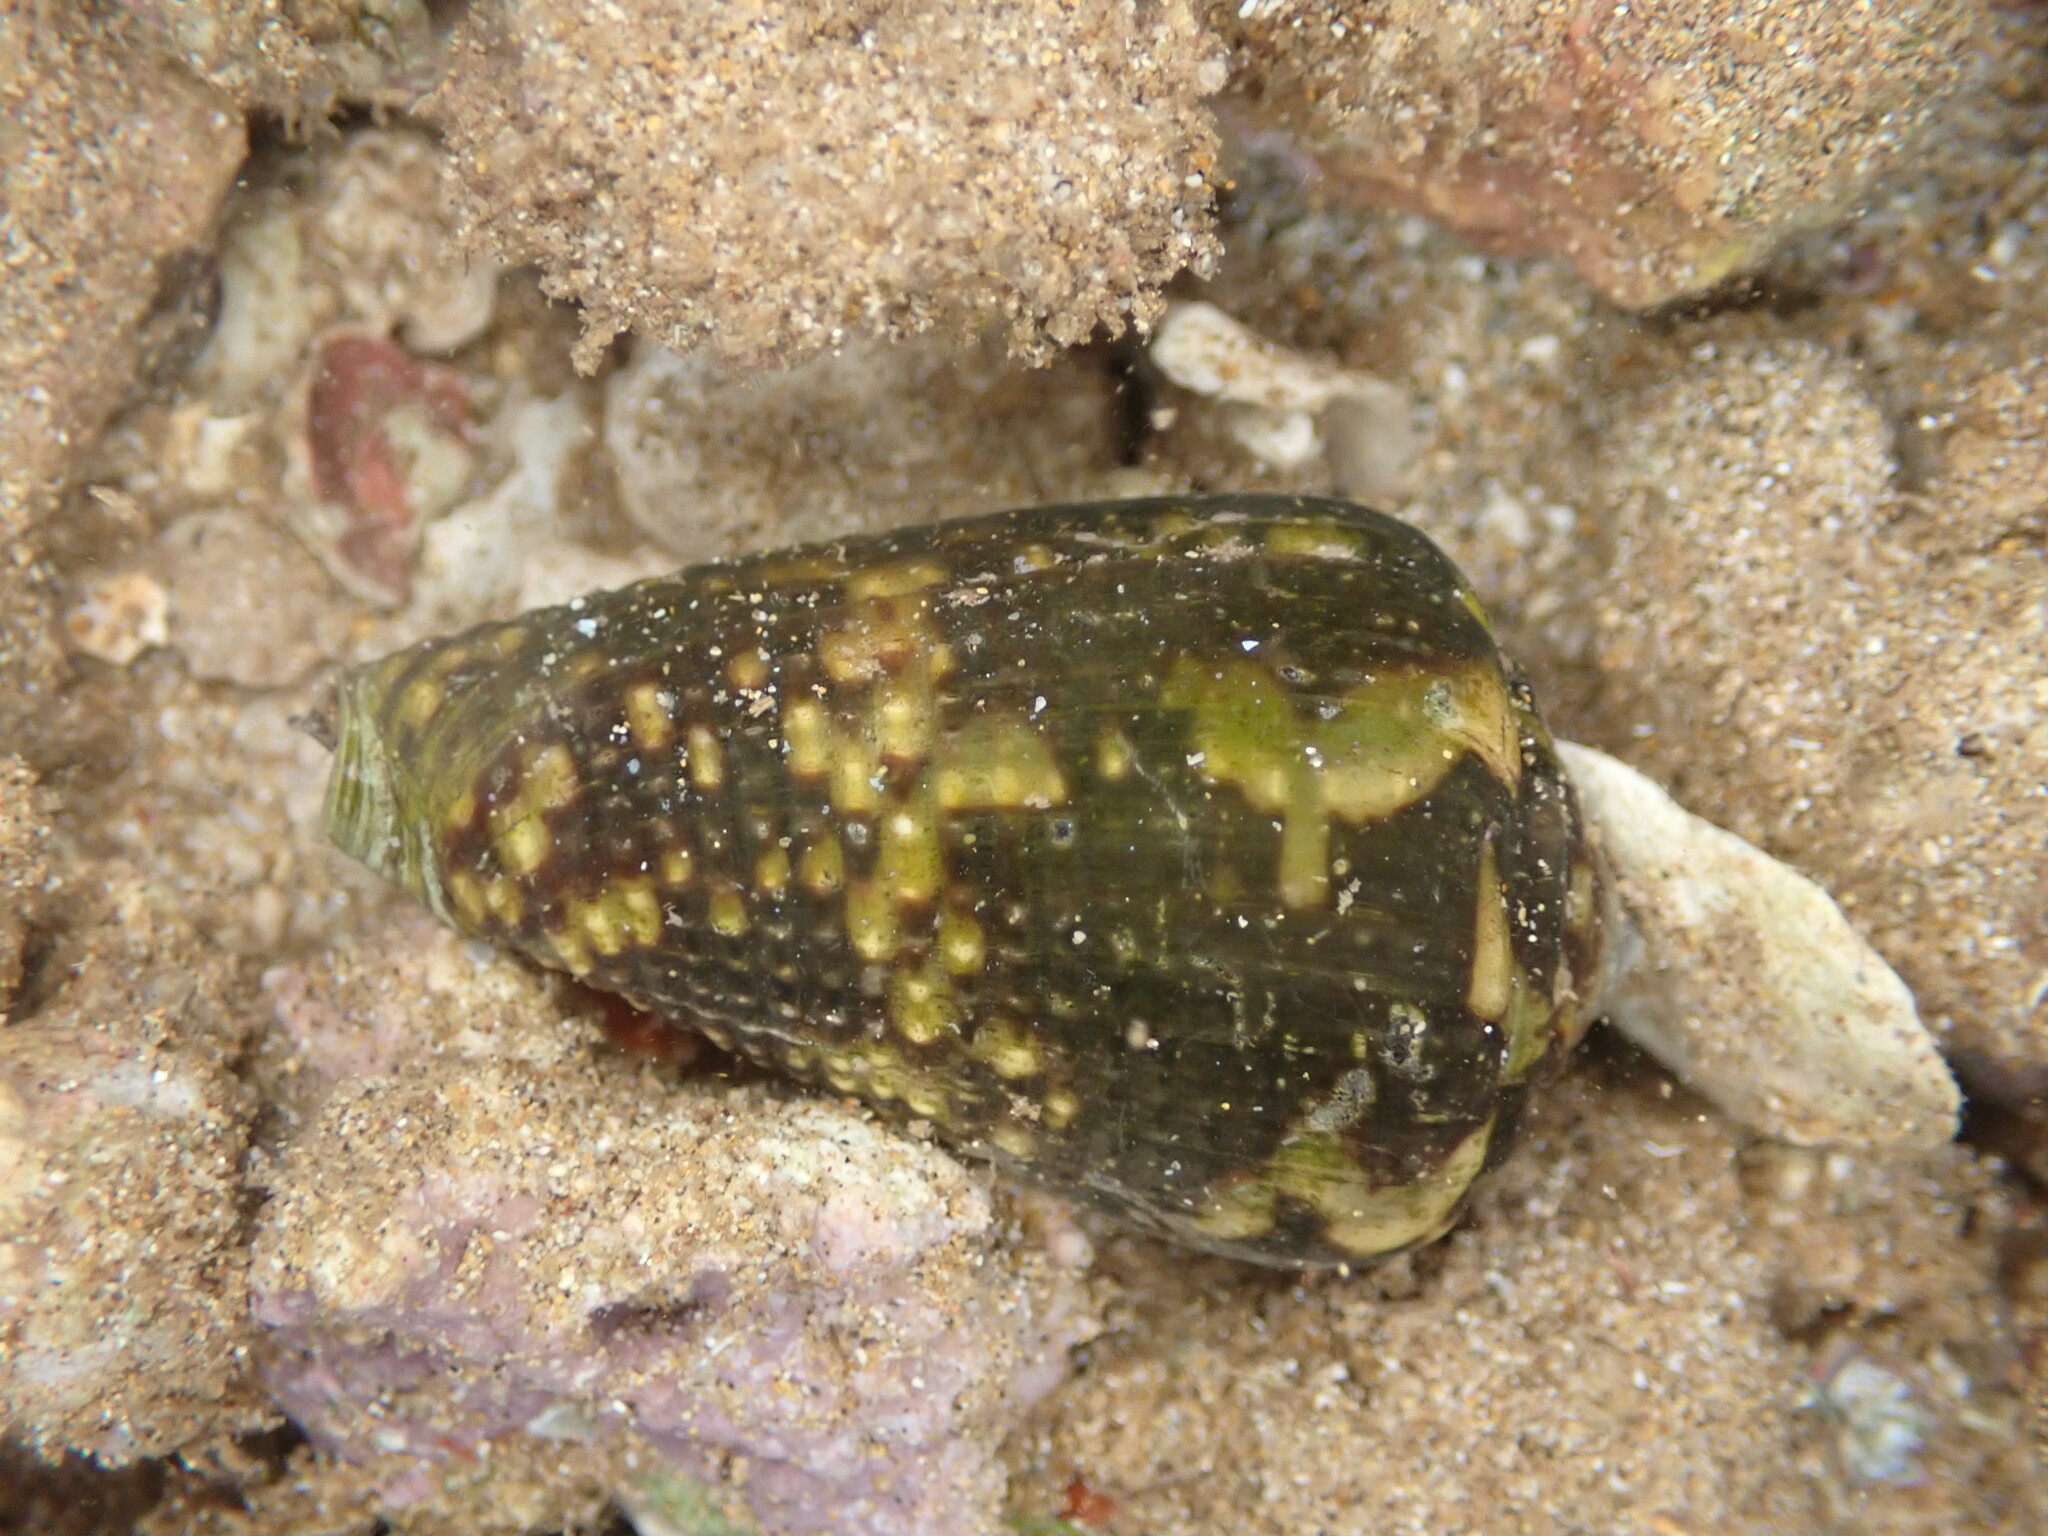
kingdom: Animalia
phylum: Mollusca
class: Gastropoda
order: Neogastropoda
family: Conidae
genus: Conus
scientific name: Conus catus
